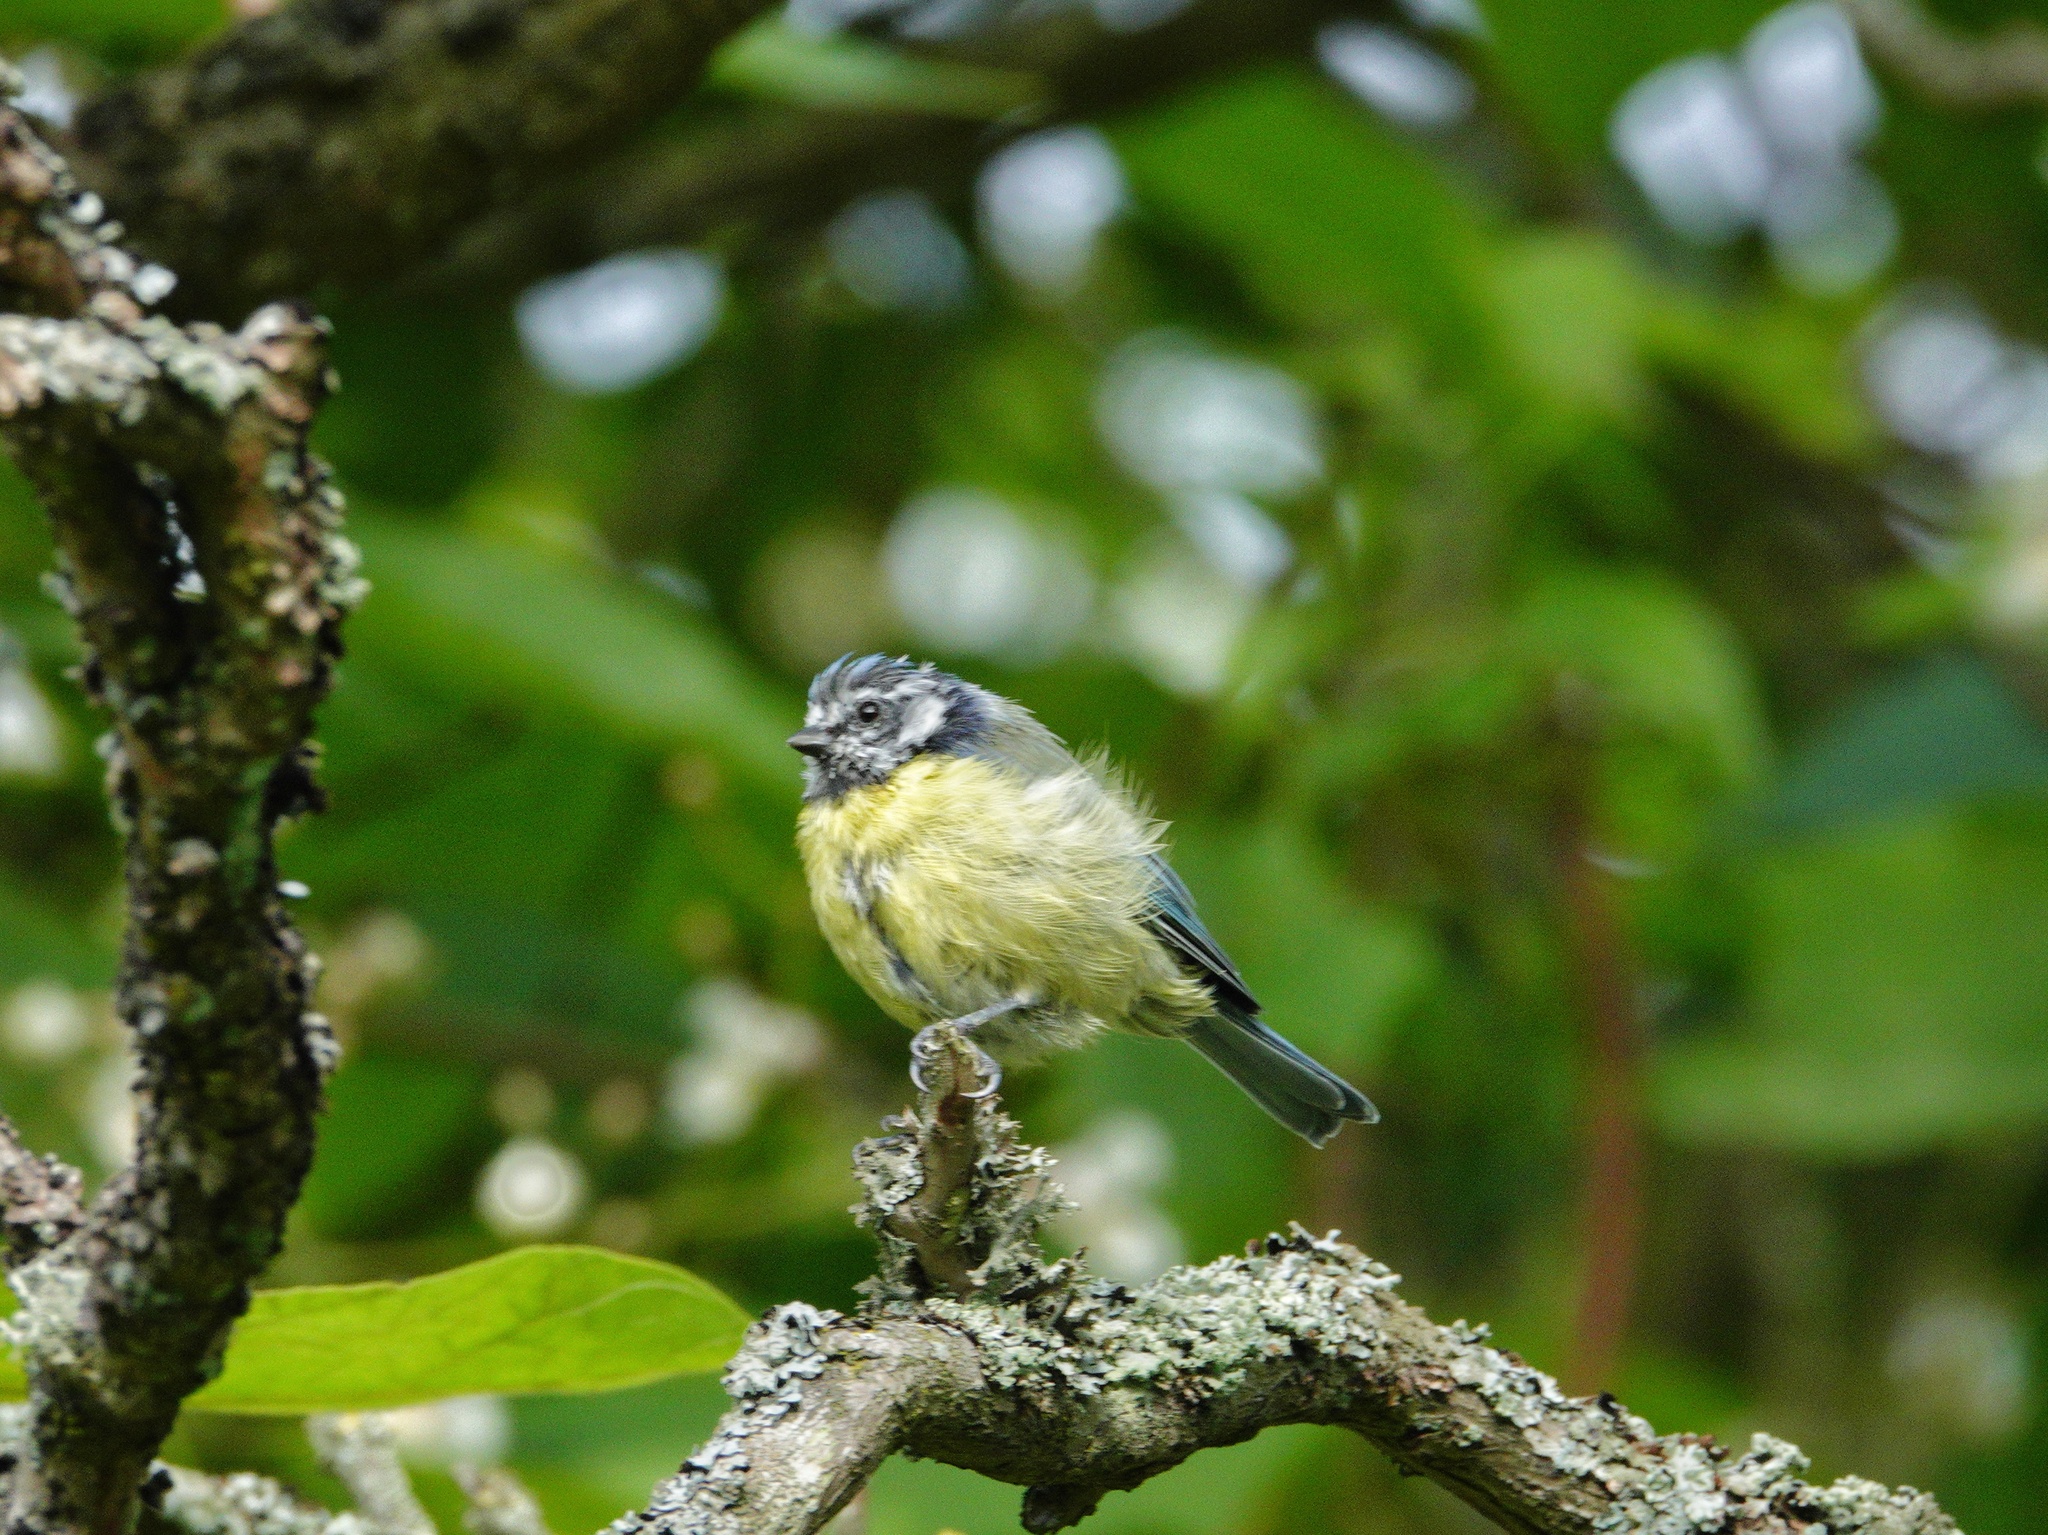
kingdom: Animalia
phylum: Chordata
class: Aves
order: Passeriformes
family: Paridae
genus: Cyanistes
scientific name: Cyanistes caeruleus
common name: Eurasian blue tit
